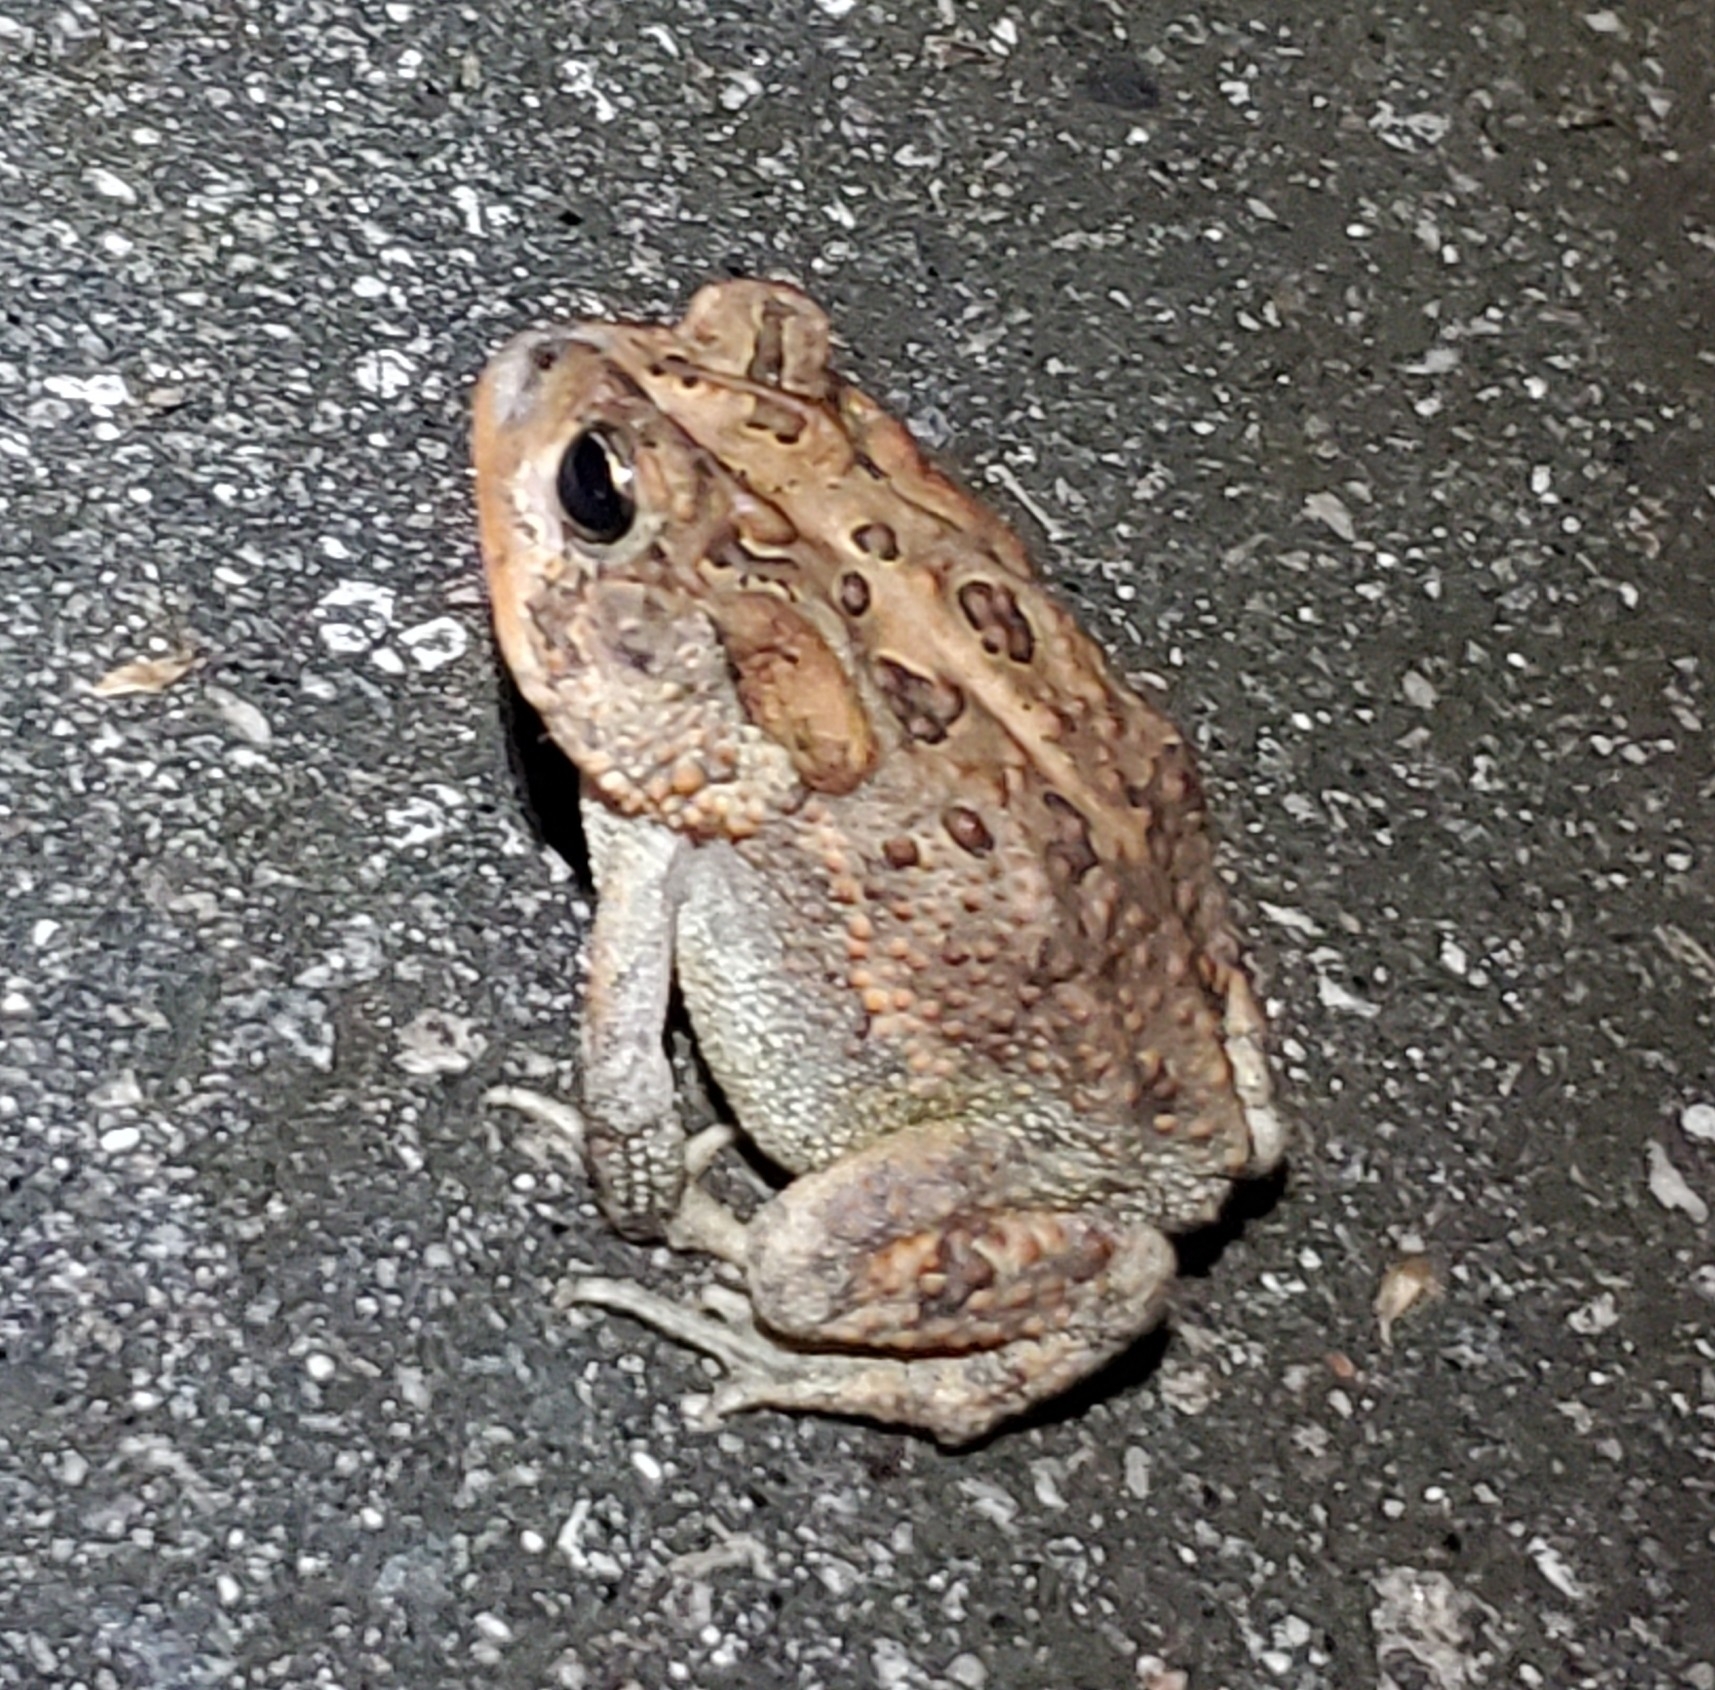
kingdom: Animalia
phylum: Chordata
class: Amphibia
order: Anura
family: Bufonidae
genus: Anaxyrus
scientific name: Anaxyrus terrestris
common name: Southern toad
